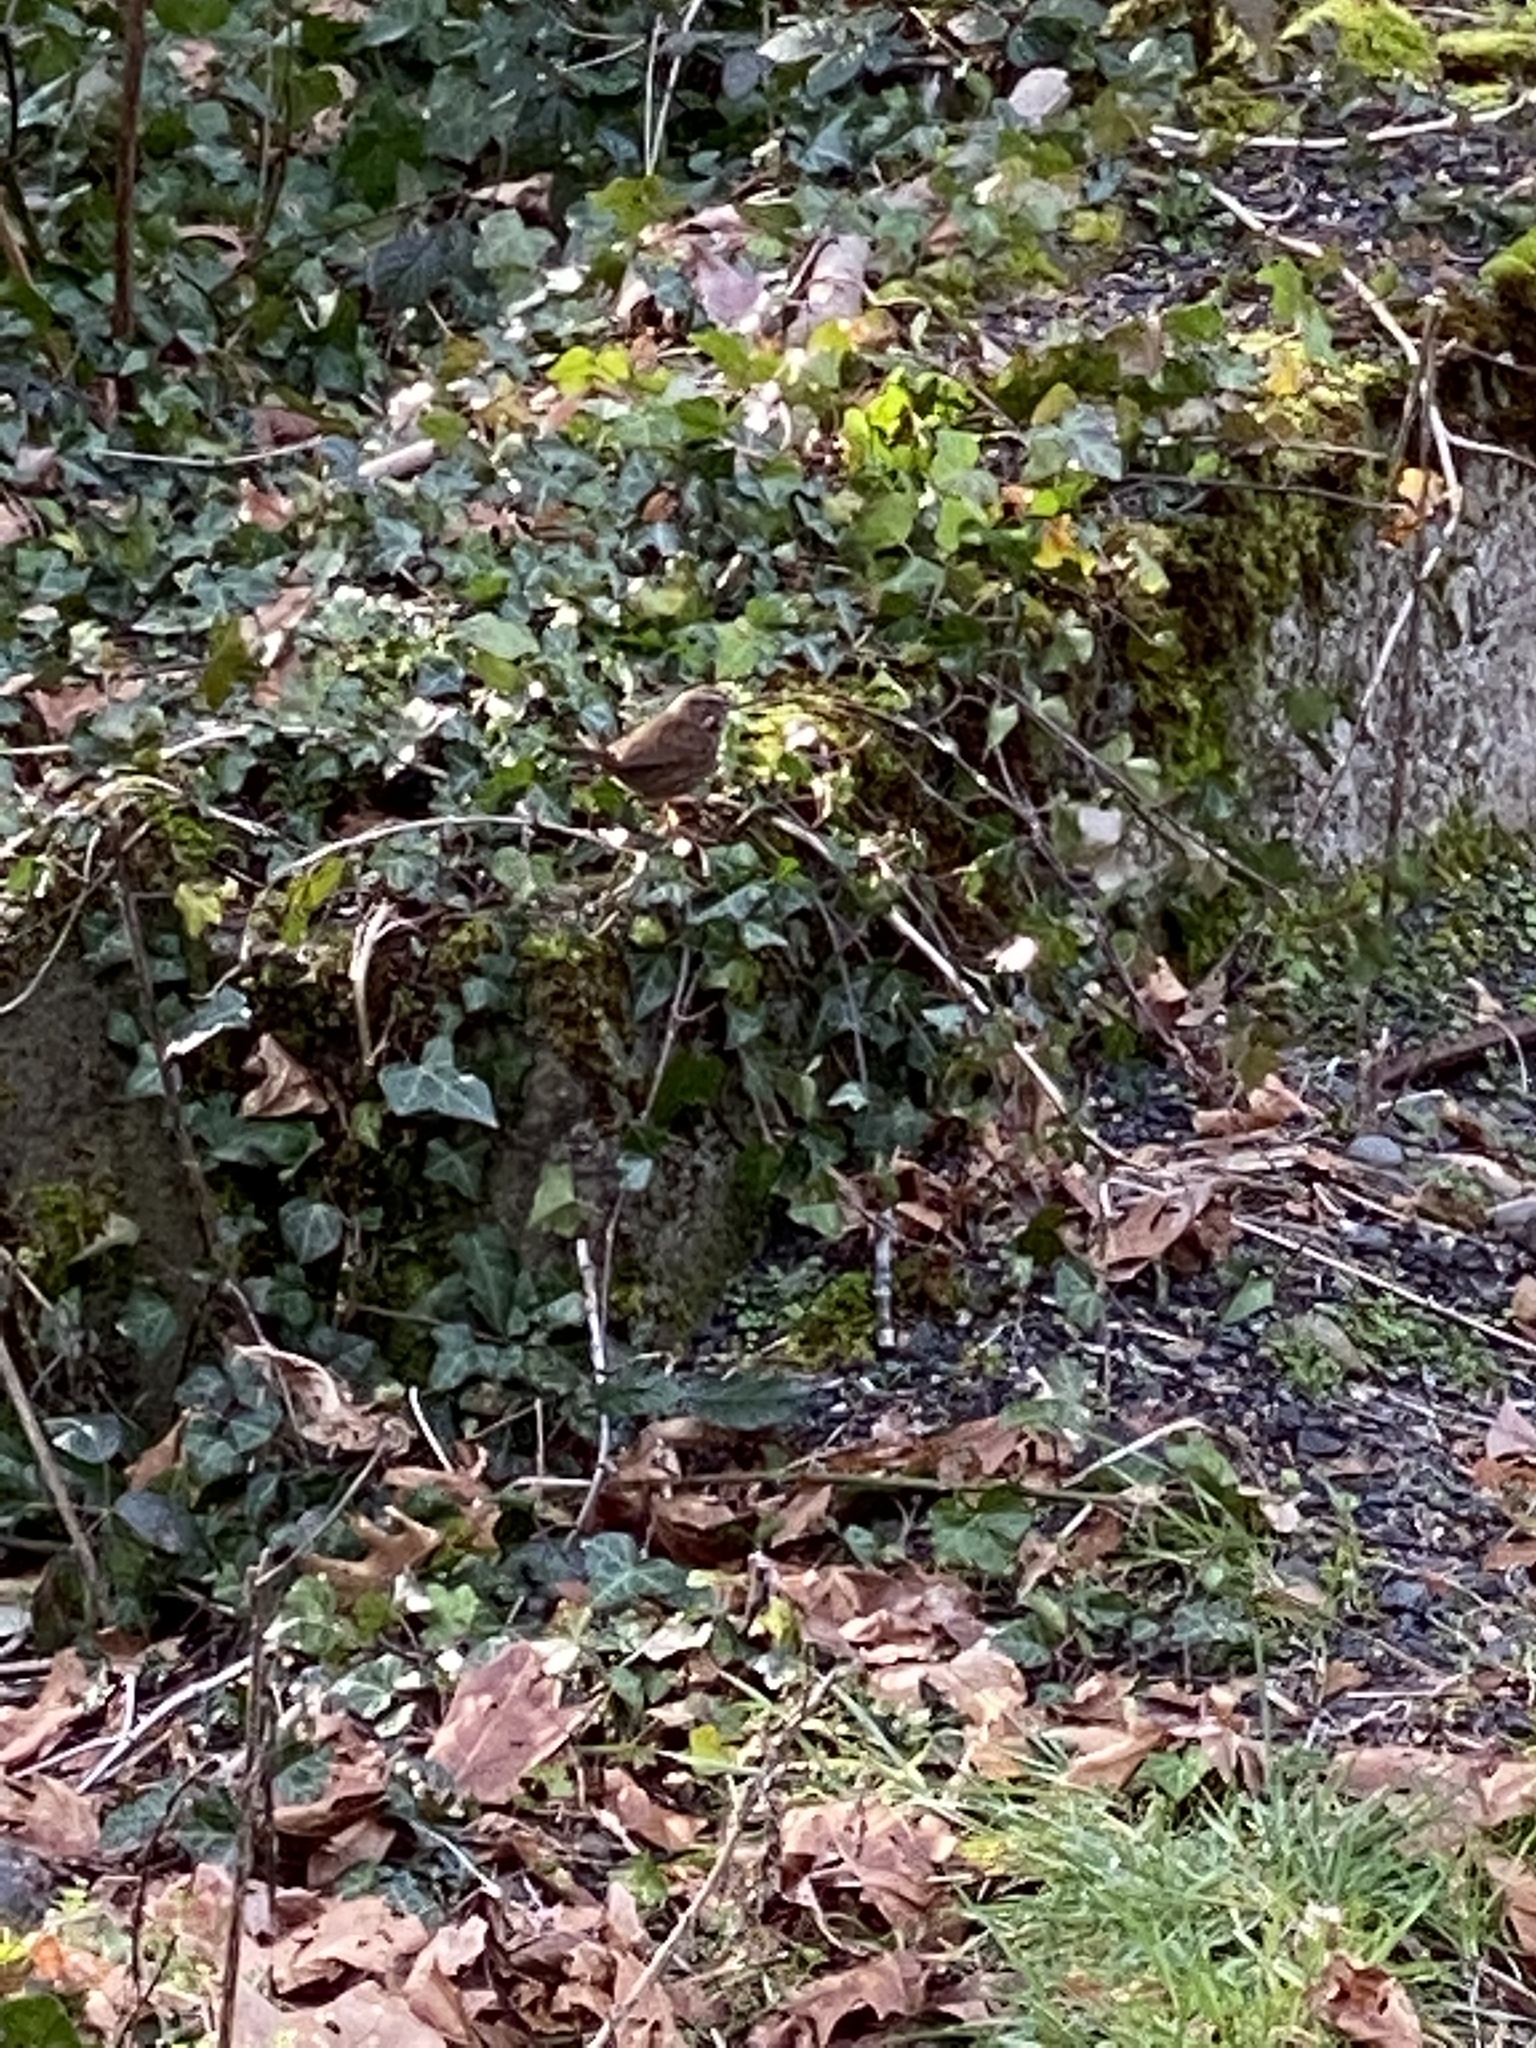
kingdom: Animalia
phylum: Chordata
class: Aves
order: Passeriformes
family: Passerellidae
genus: Melospiza
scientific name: Melospiza melodia
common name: Song sparrow
